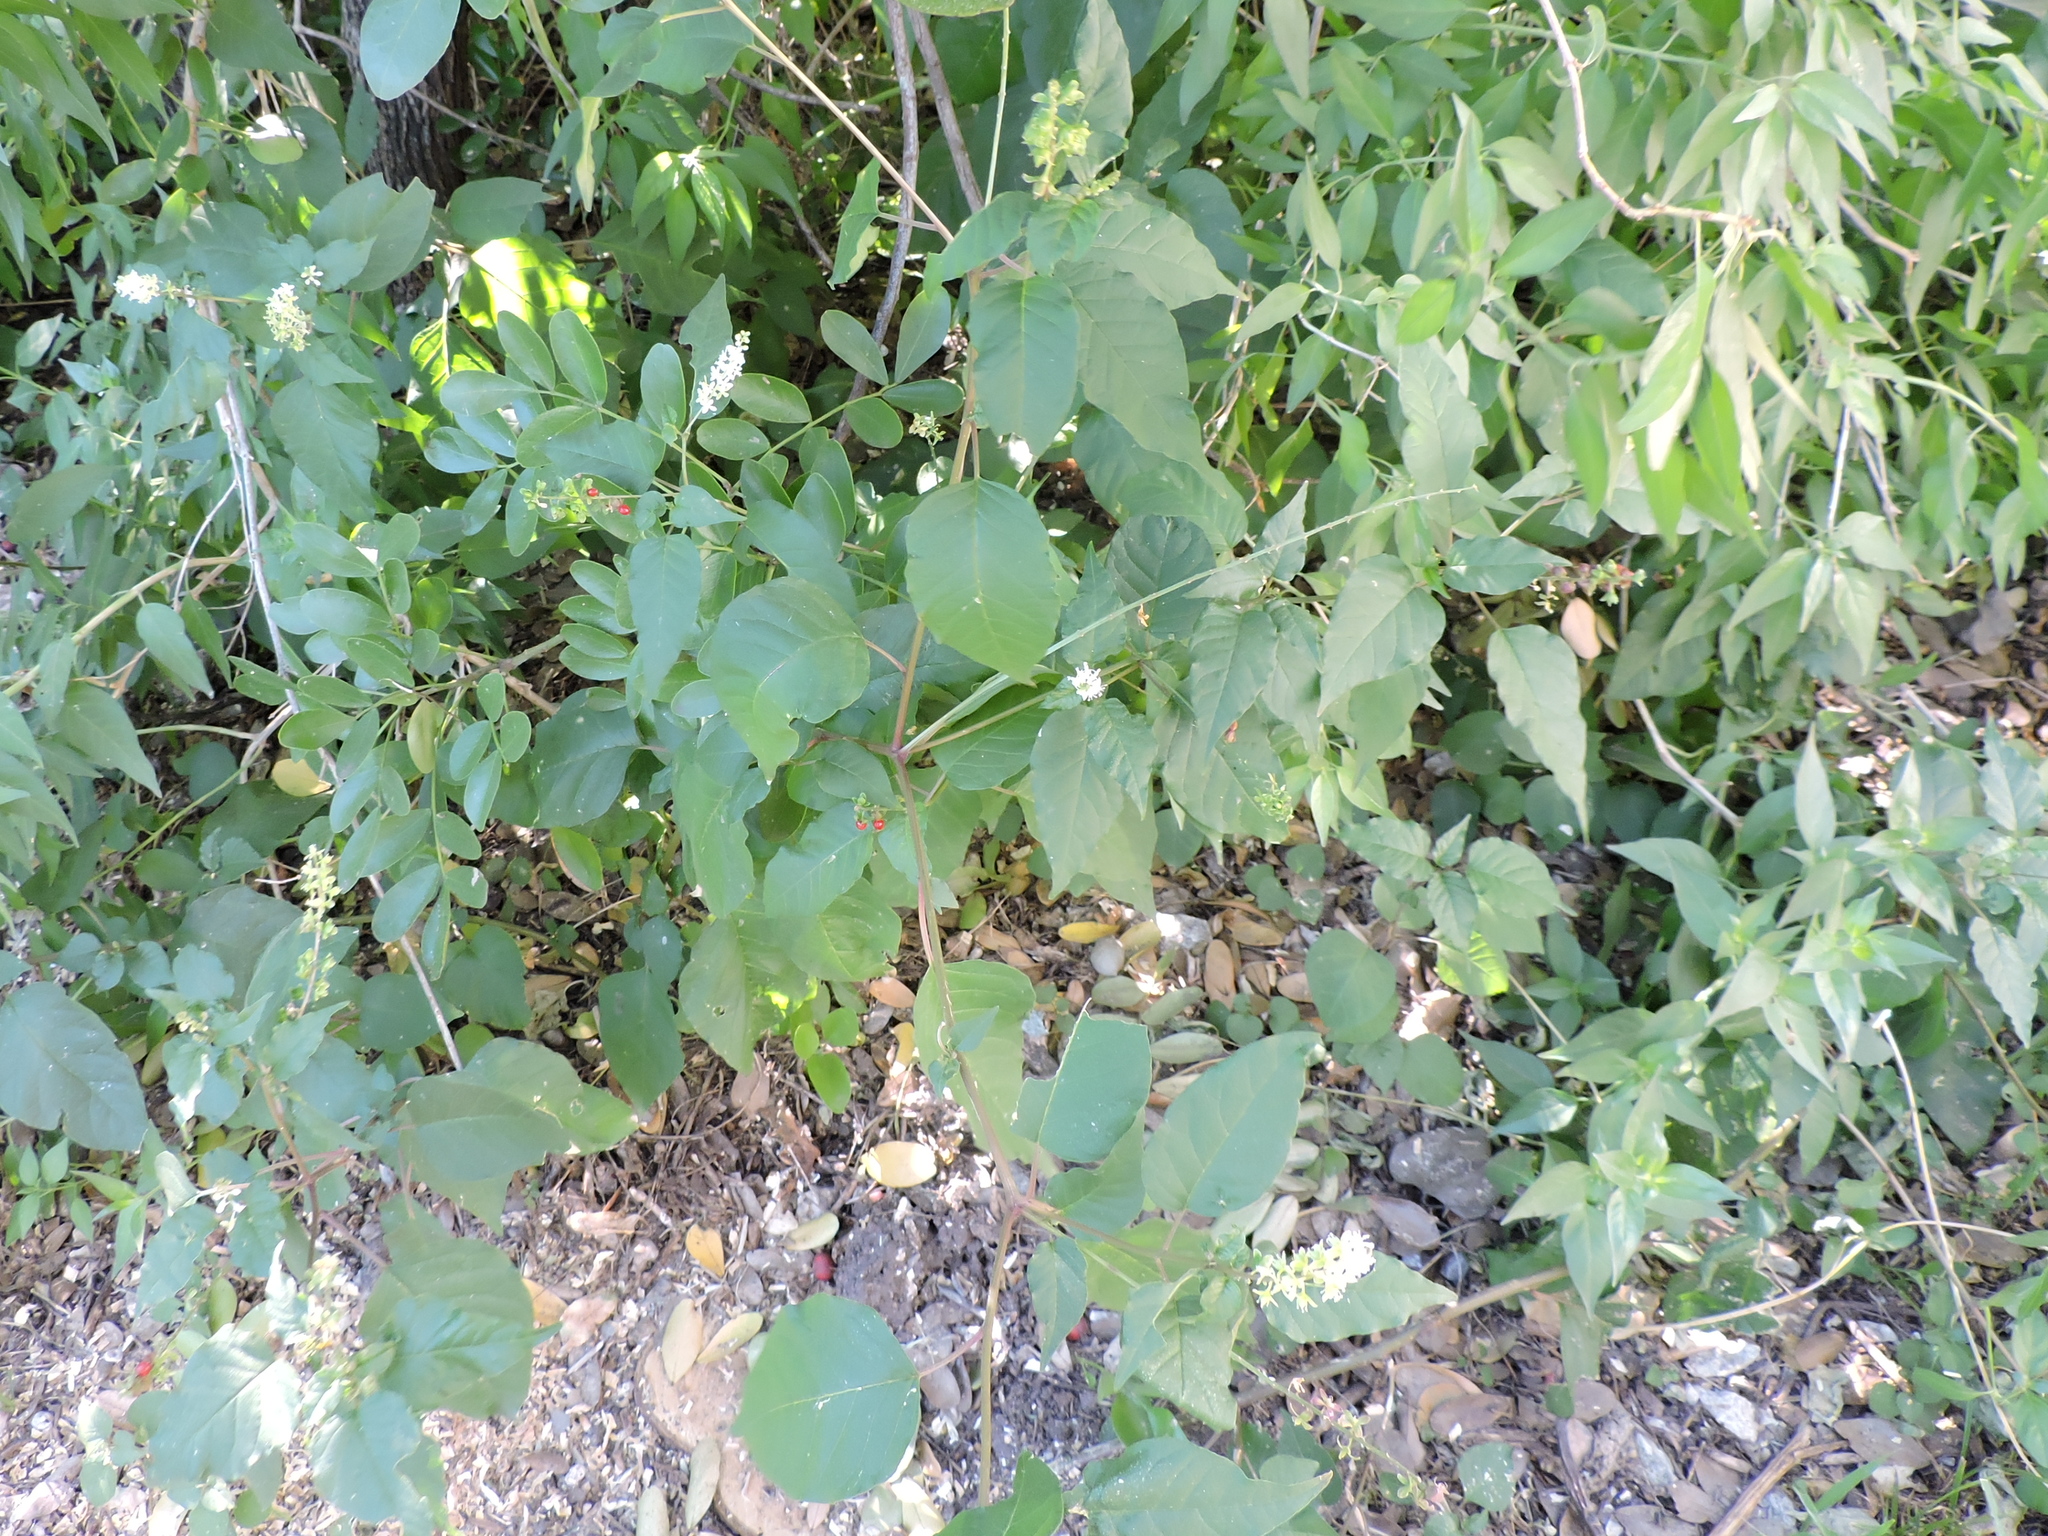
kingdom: Plantae
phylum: Tracheophyta
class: Magnoliopsida
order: Caryophyllales
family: Phytolaccaceae
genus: Rivina
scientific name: Rivina humilis
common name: Rougeplant
